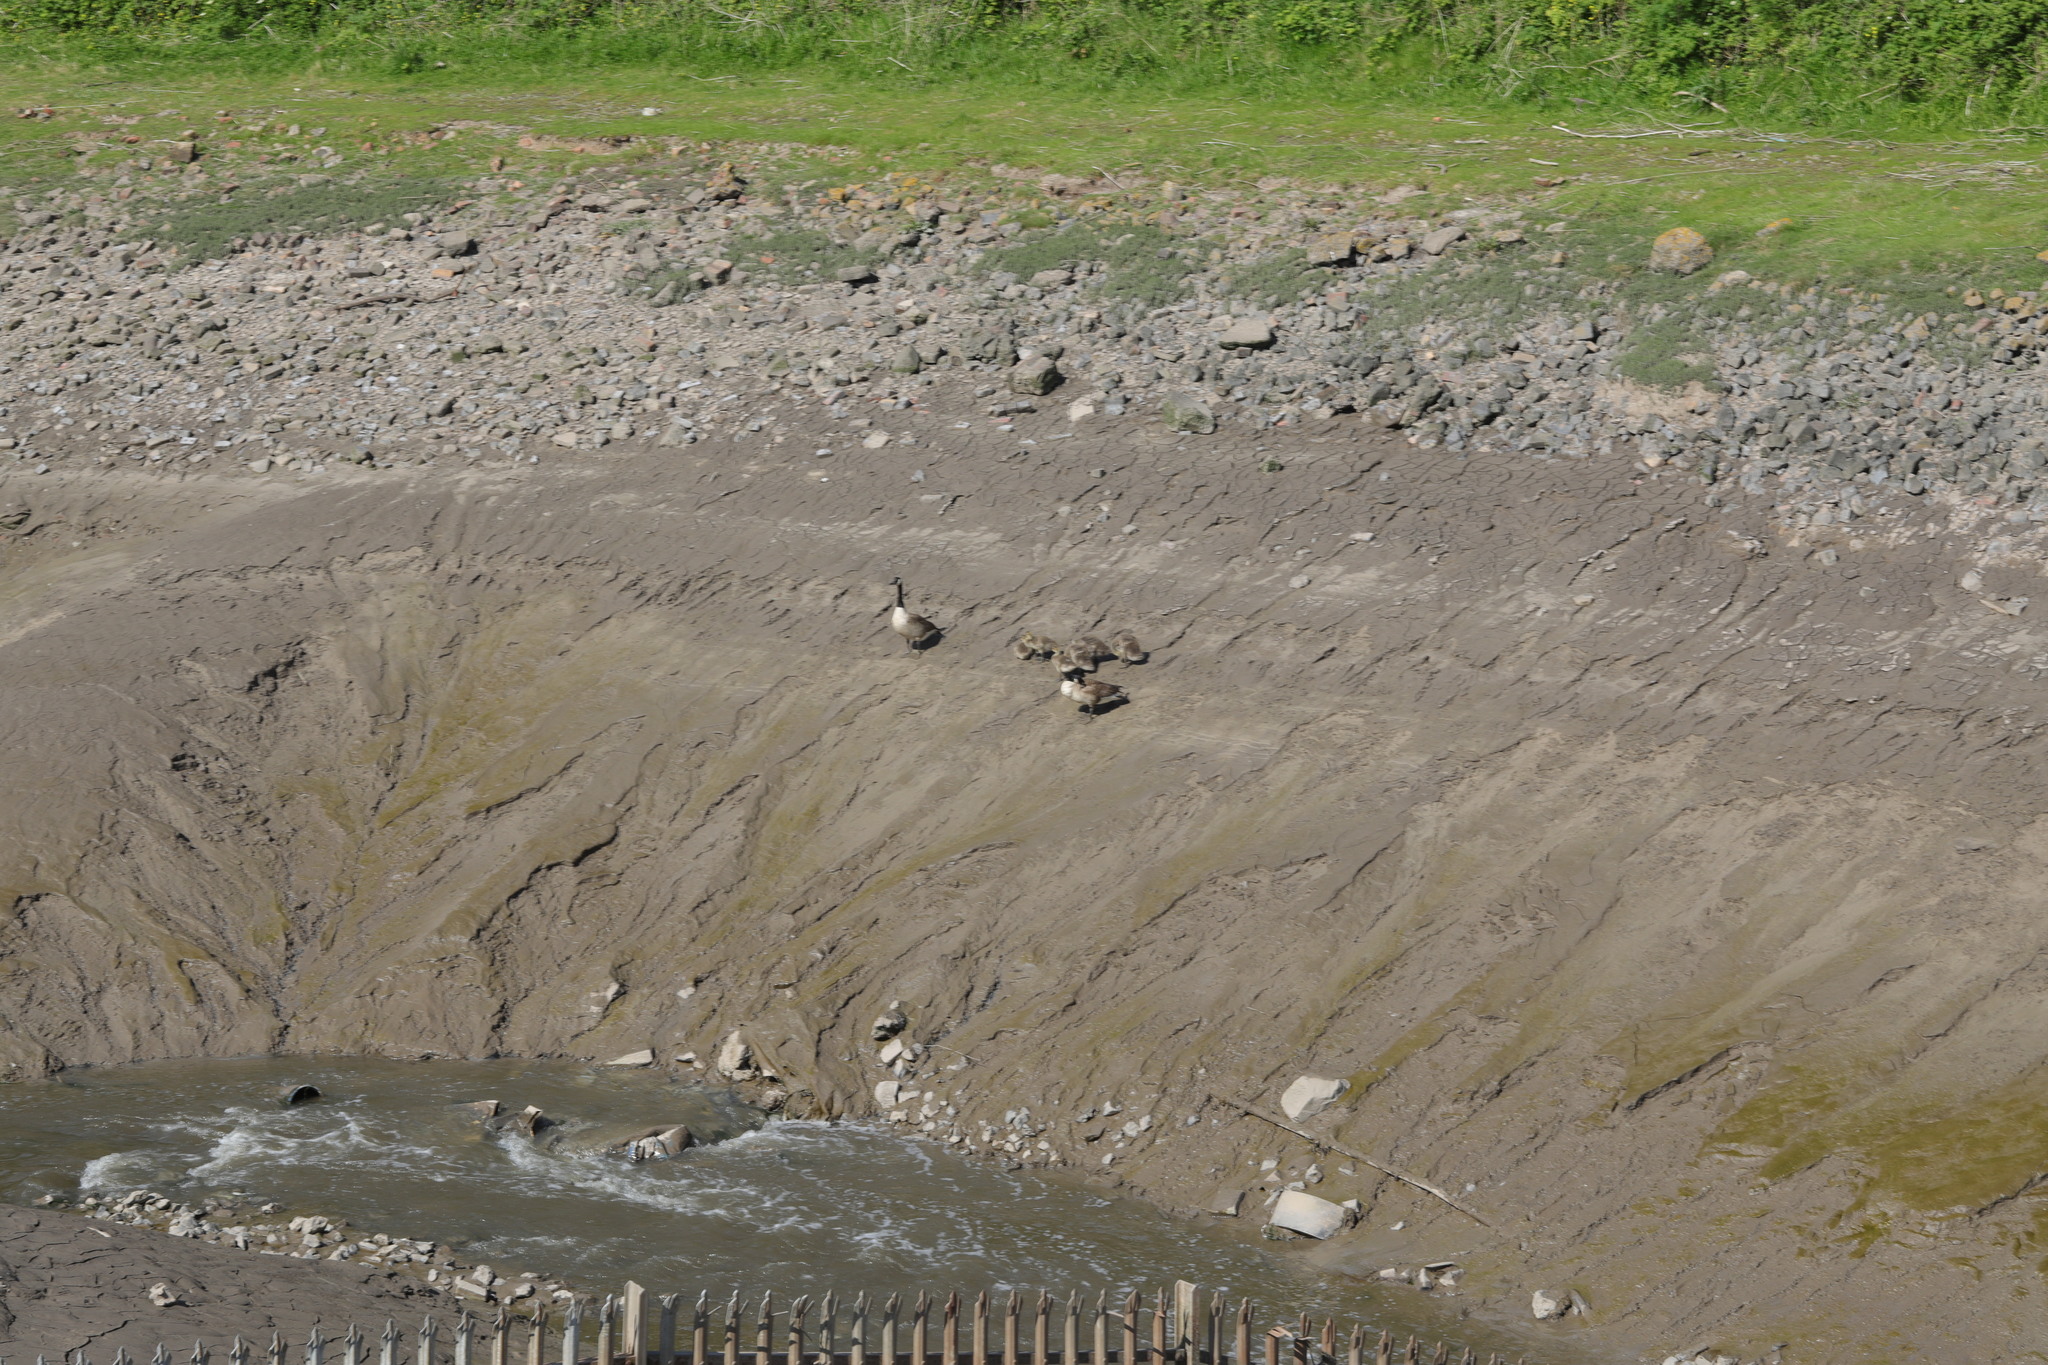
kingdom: Animalia
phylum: Chordata
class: Aves
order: Anseriformes
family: Anatidae
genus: Branta
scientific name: Branta canadensis
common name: Canada goose
